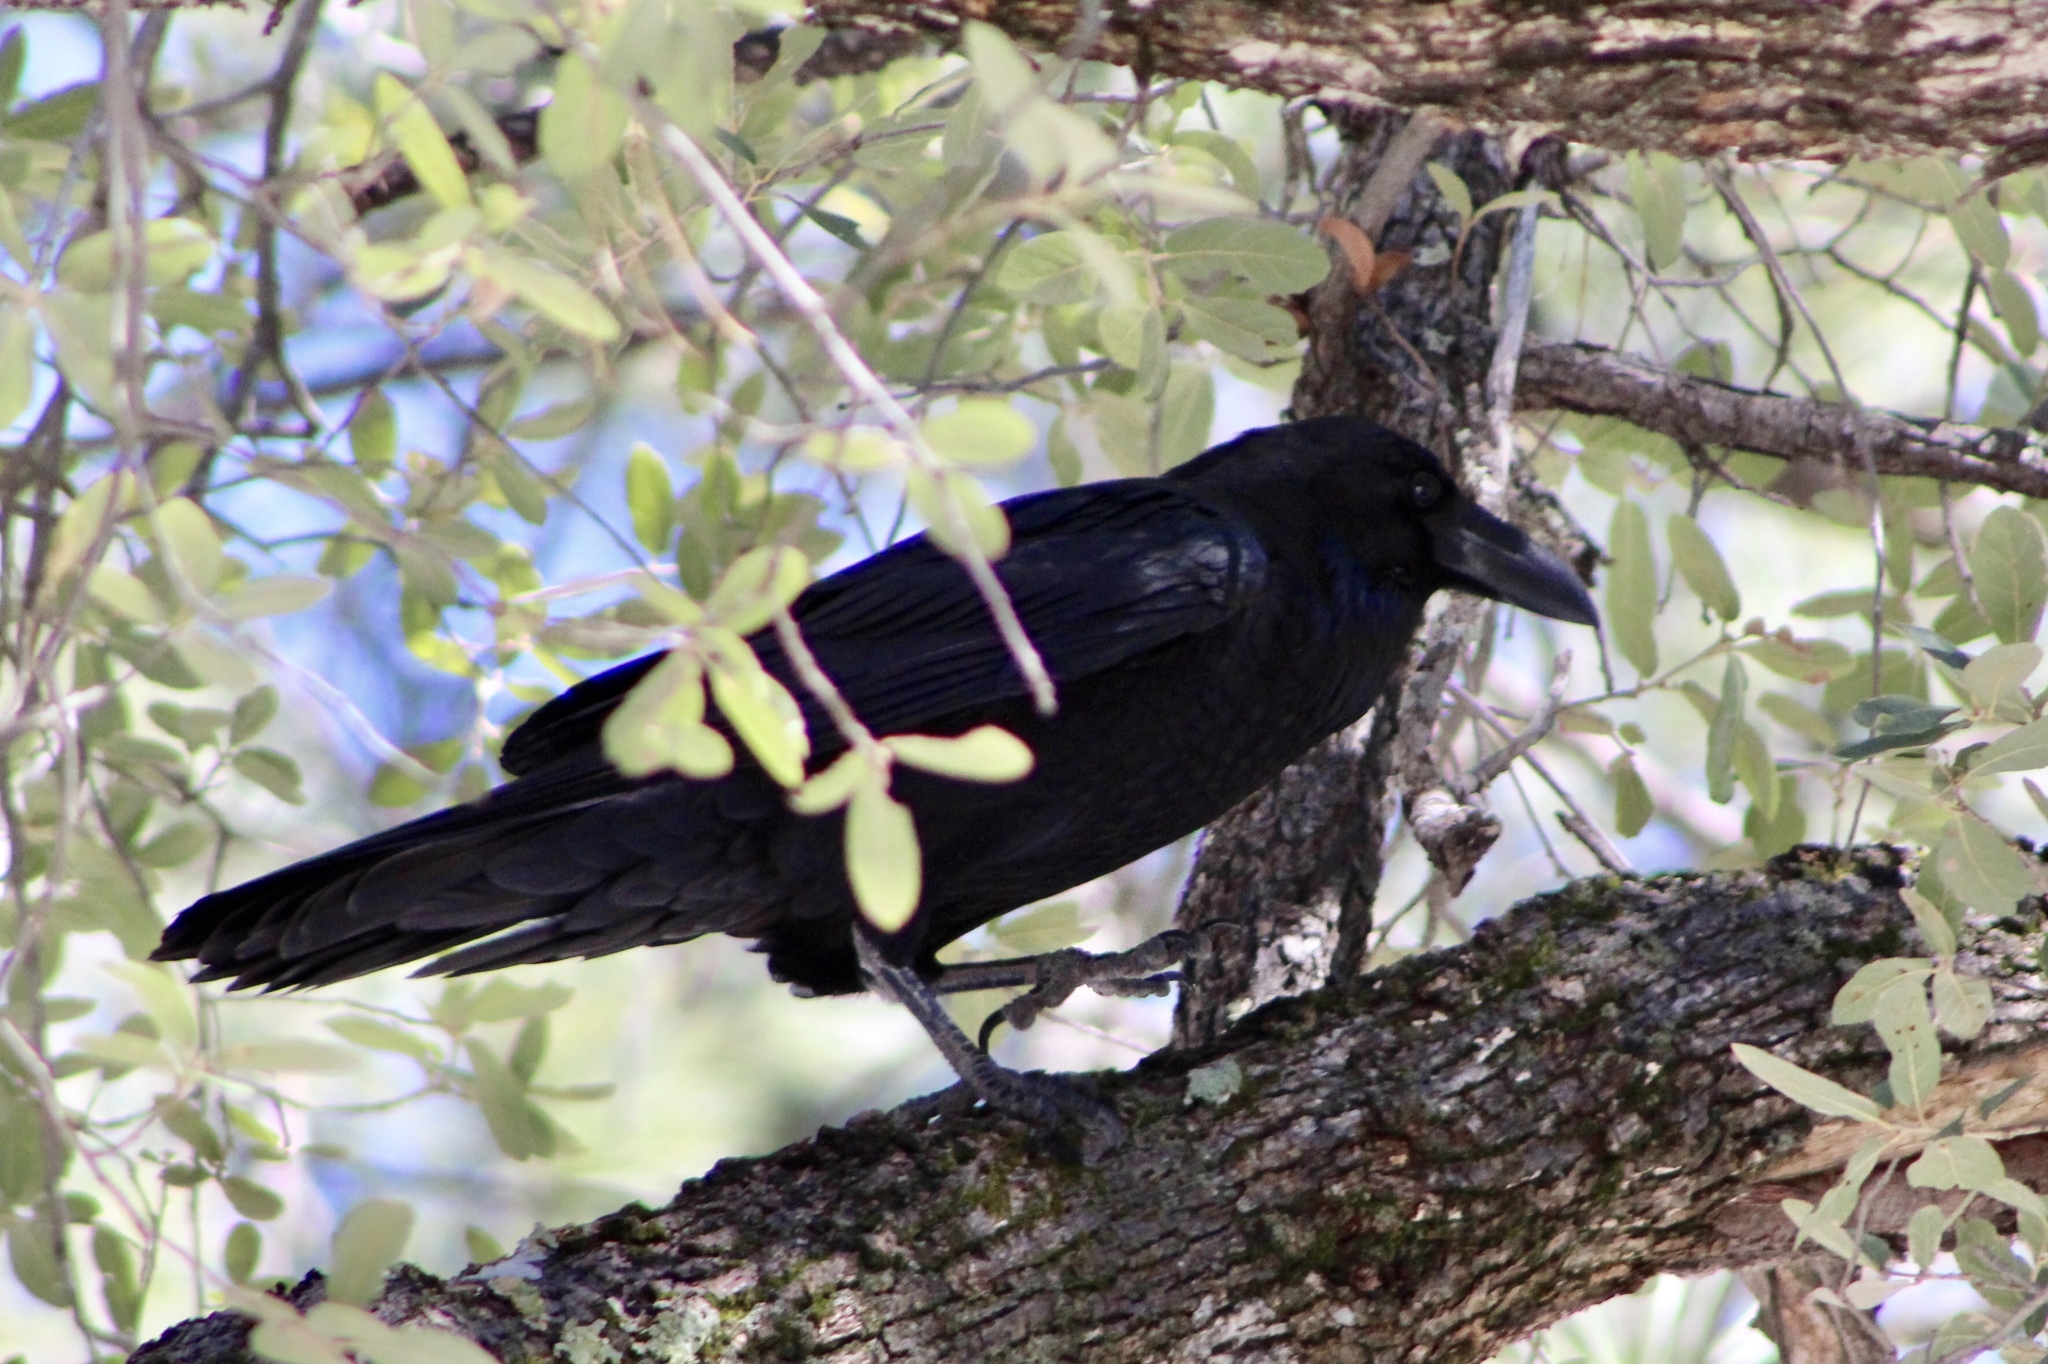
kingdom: Animalia
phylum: Chordata
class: Aves
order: Passeriformes
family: Corvidae
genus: Corvus
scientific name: Corvus corax
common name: Common raven
